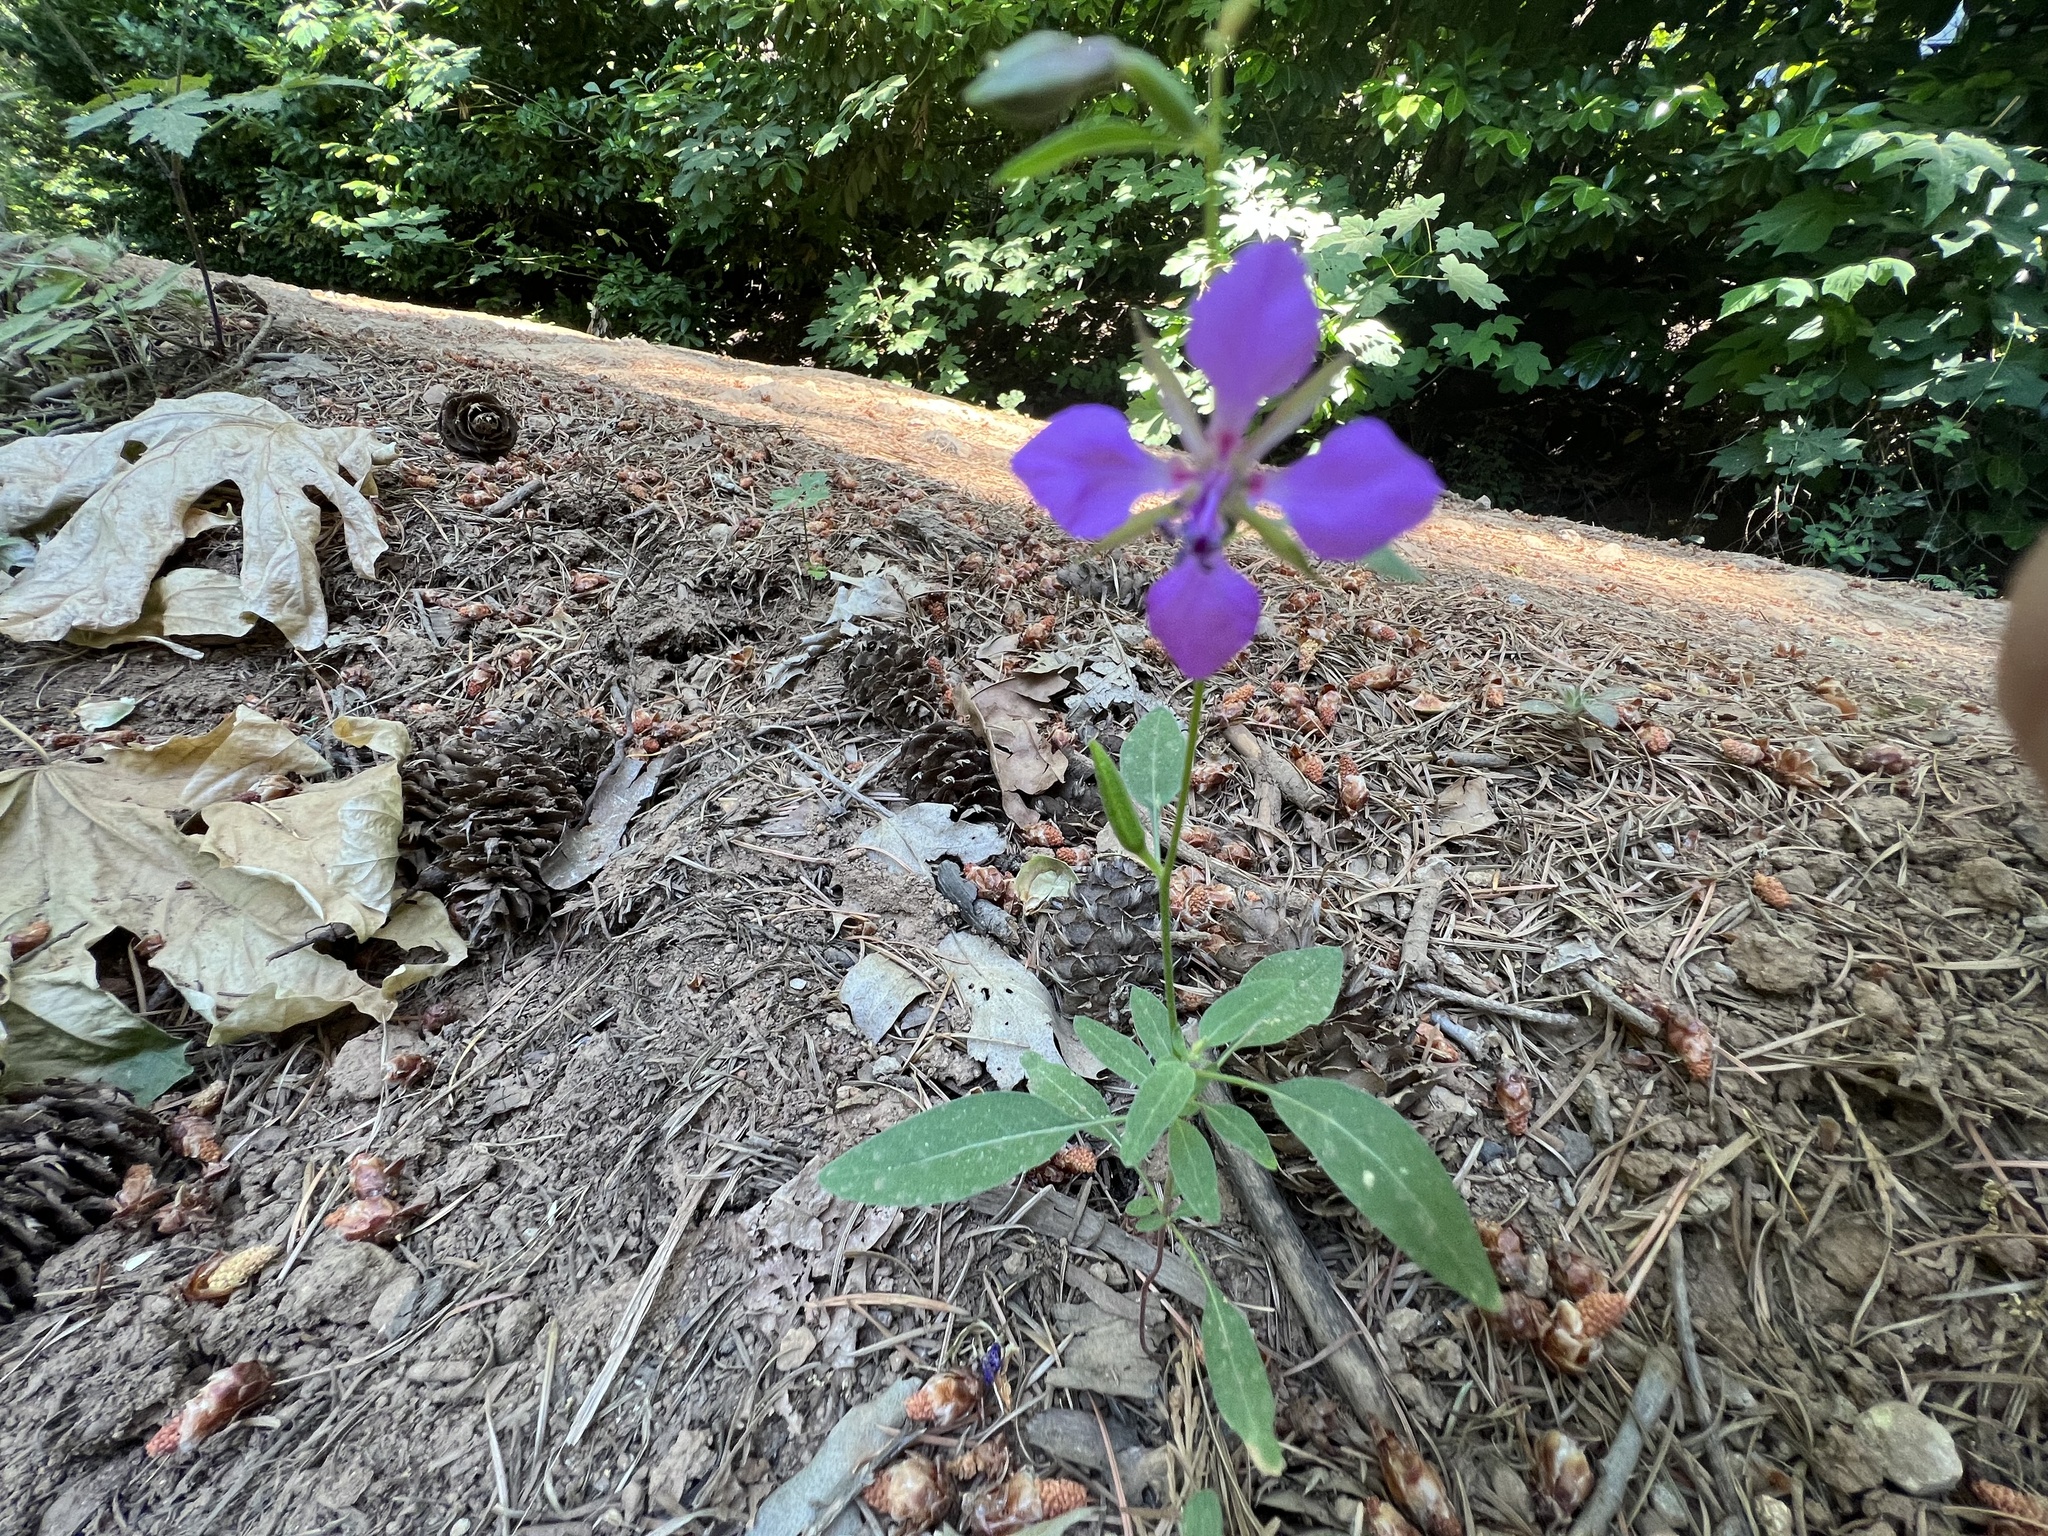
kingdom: Plantae
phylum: Tracheophyta
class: Magnoliopsida
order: Myrtales
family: Onagraceae
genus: Clarkia
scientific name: Clarkia rhomboidea
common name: Broadleaf clarkia
